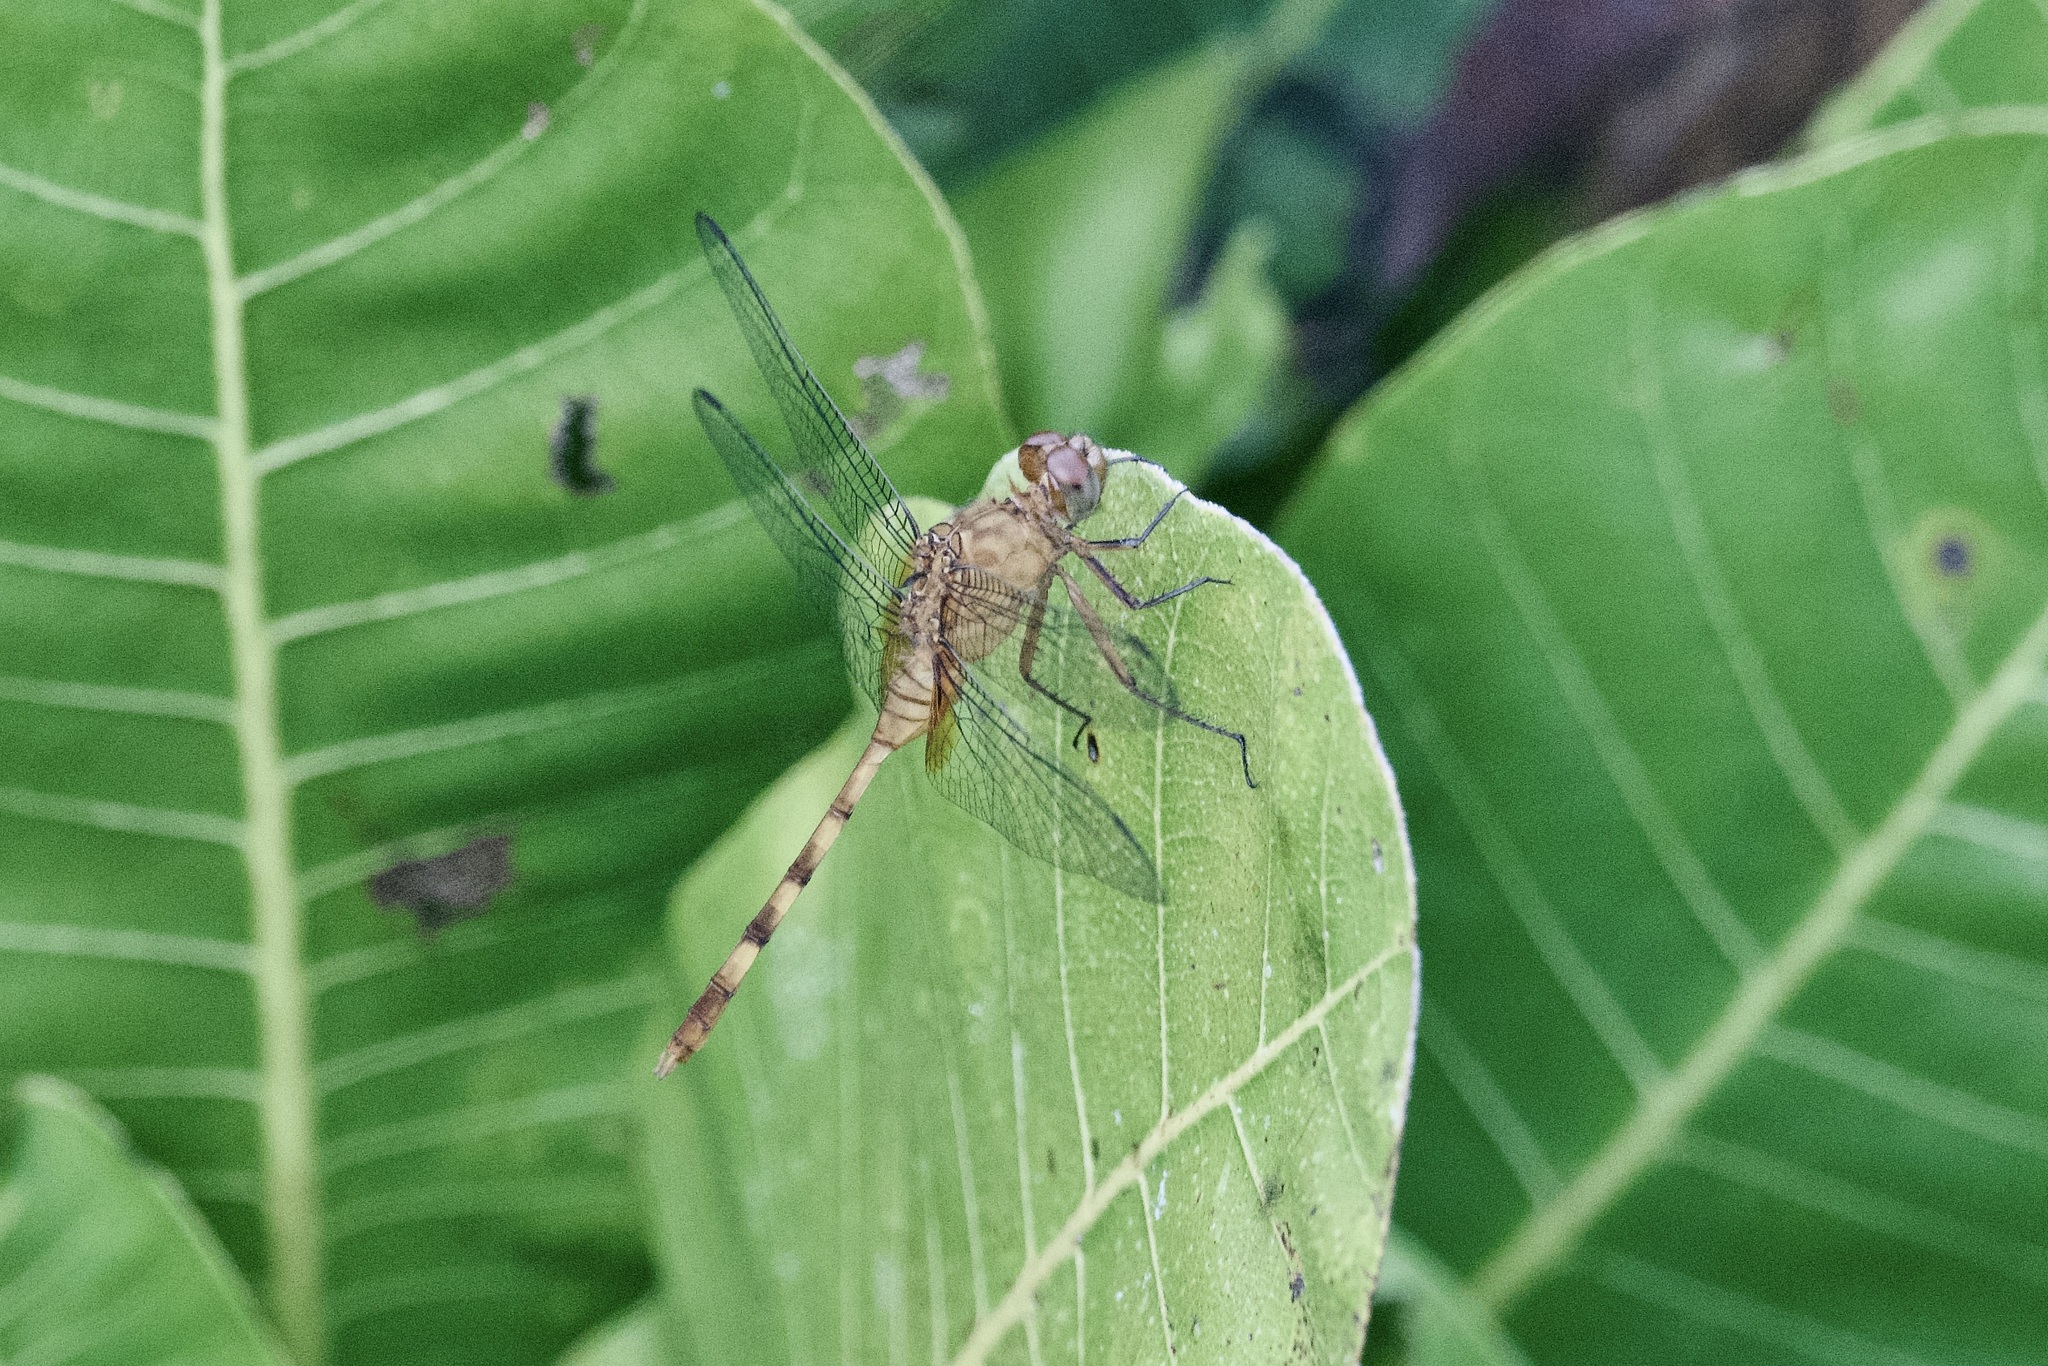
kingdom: Animalia
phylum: Arthropoda
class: Insecta
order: Odonata
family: Libellulidae
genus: Erythemis
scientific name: Erythemis plebeja
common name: Pin-tailed pondhawk
